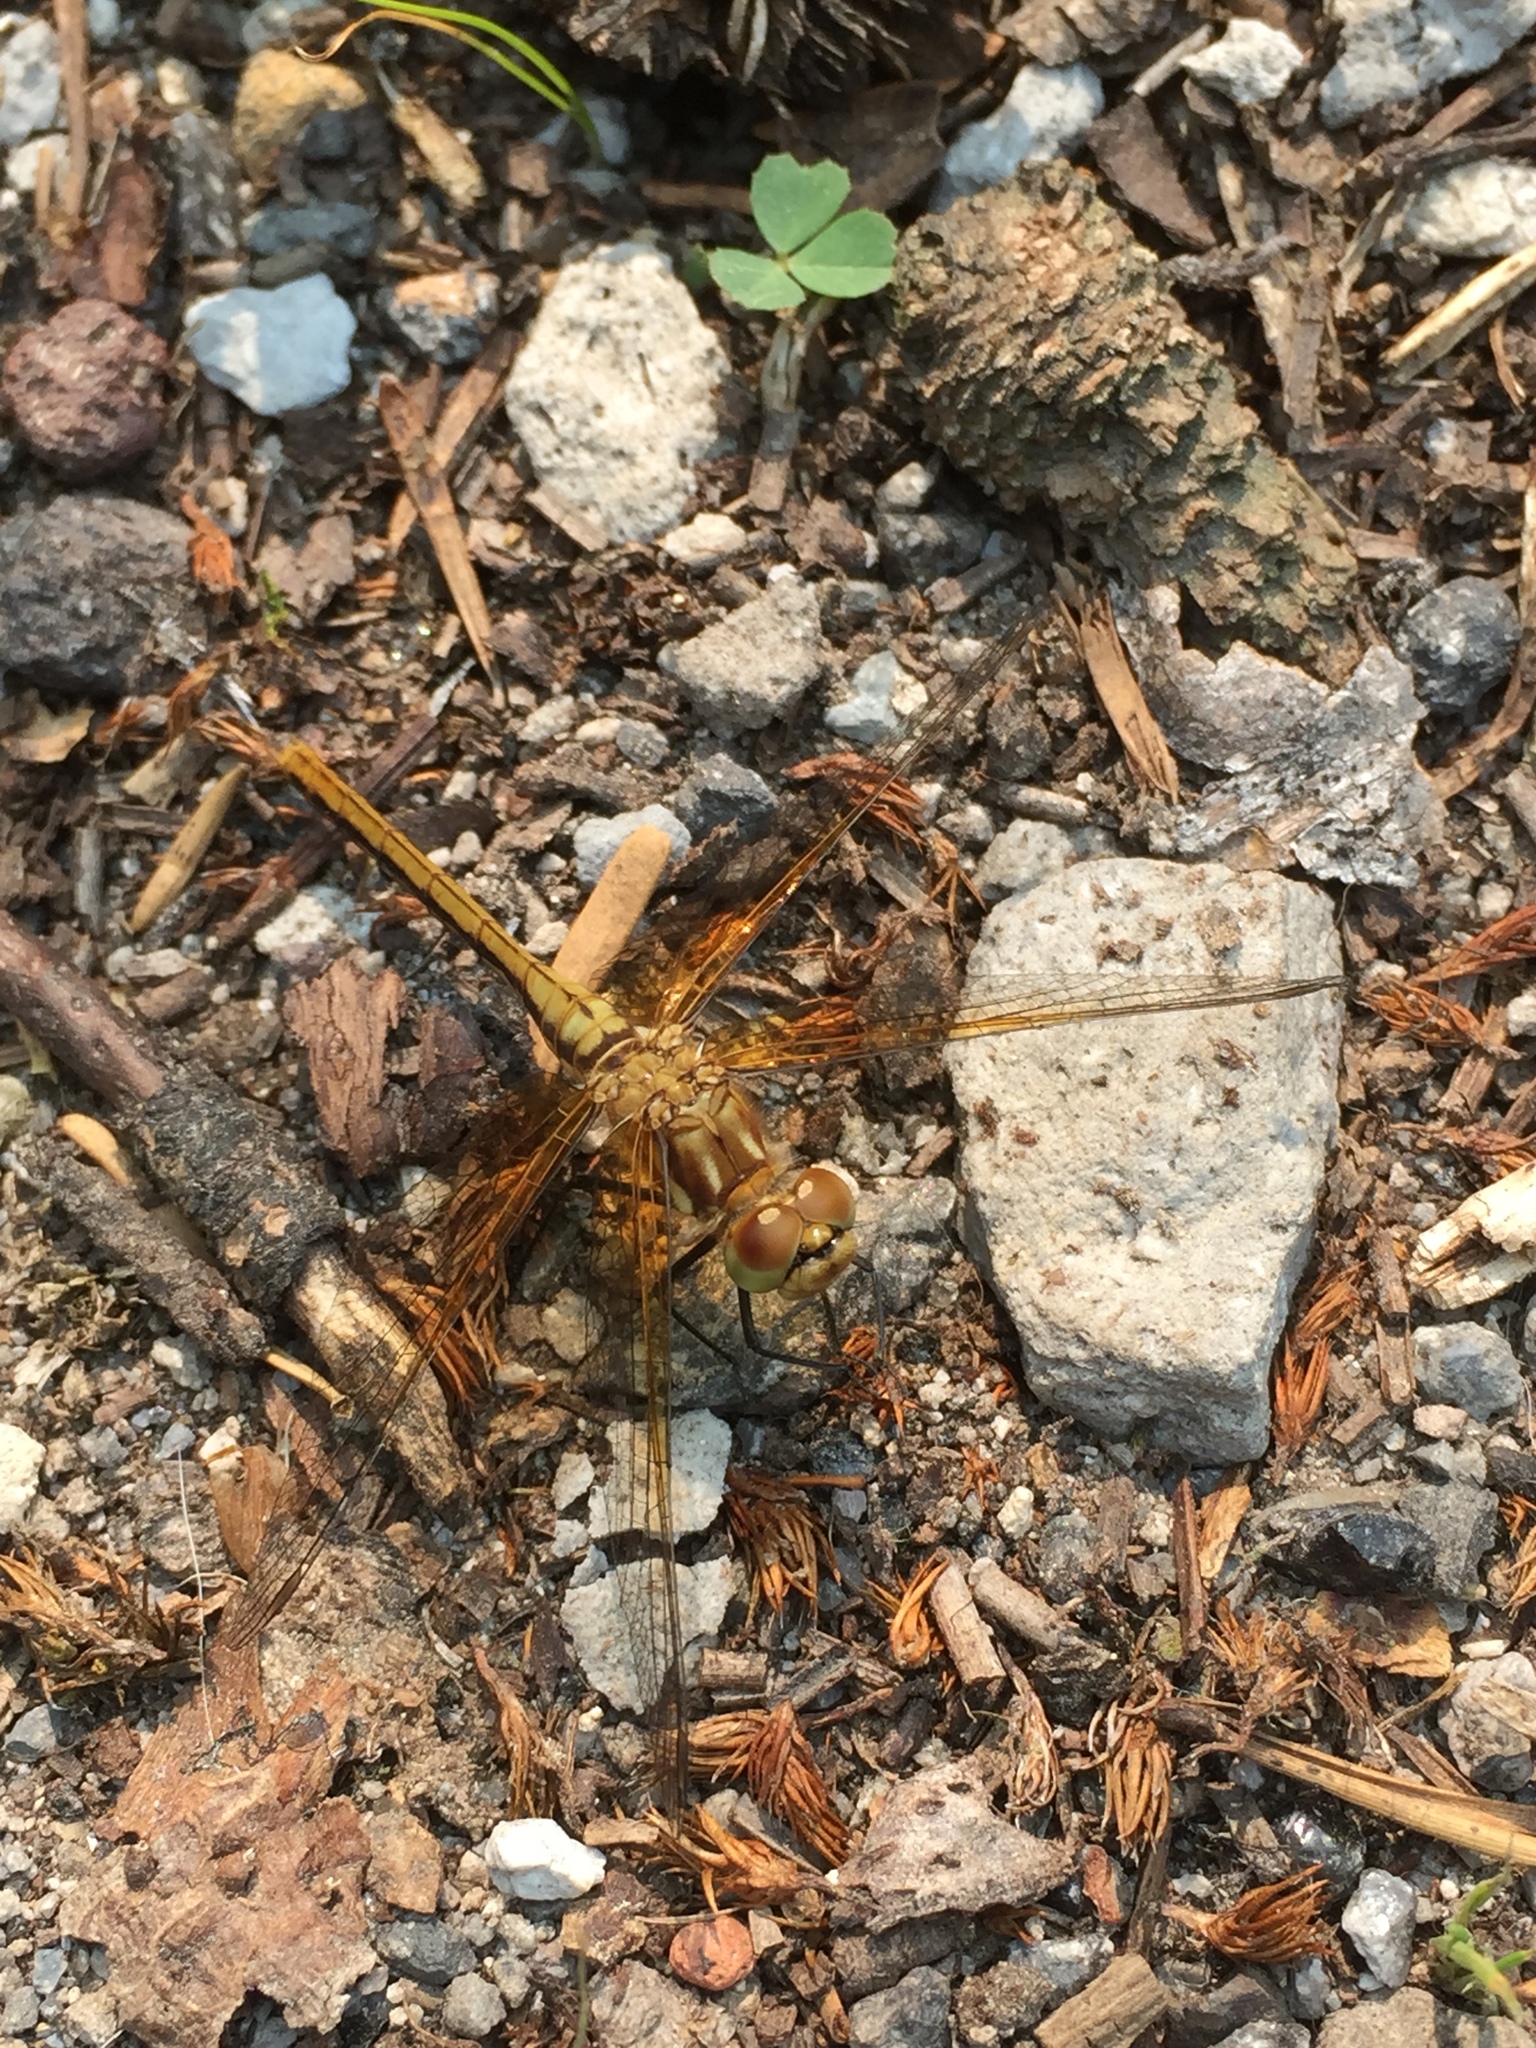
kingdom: Animalia
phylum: Arthropoda
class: Insecta
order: Odonata
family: Libellulidae
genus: Sympetrum
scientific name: Sympetrum pallipes
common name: Striped meadowhawk
